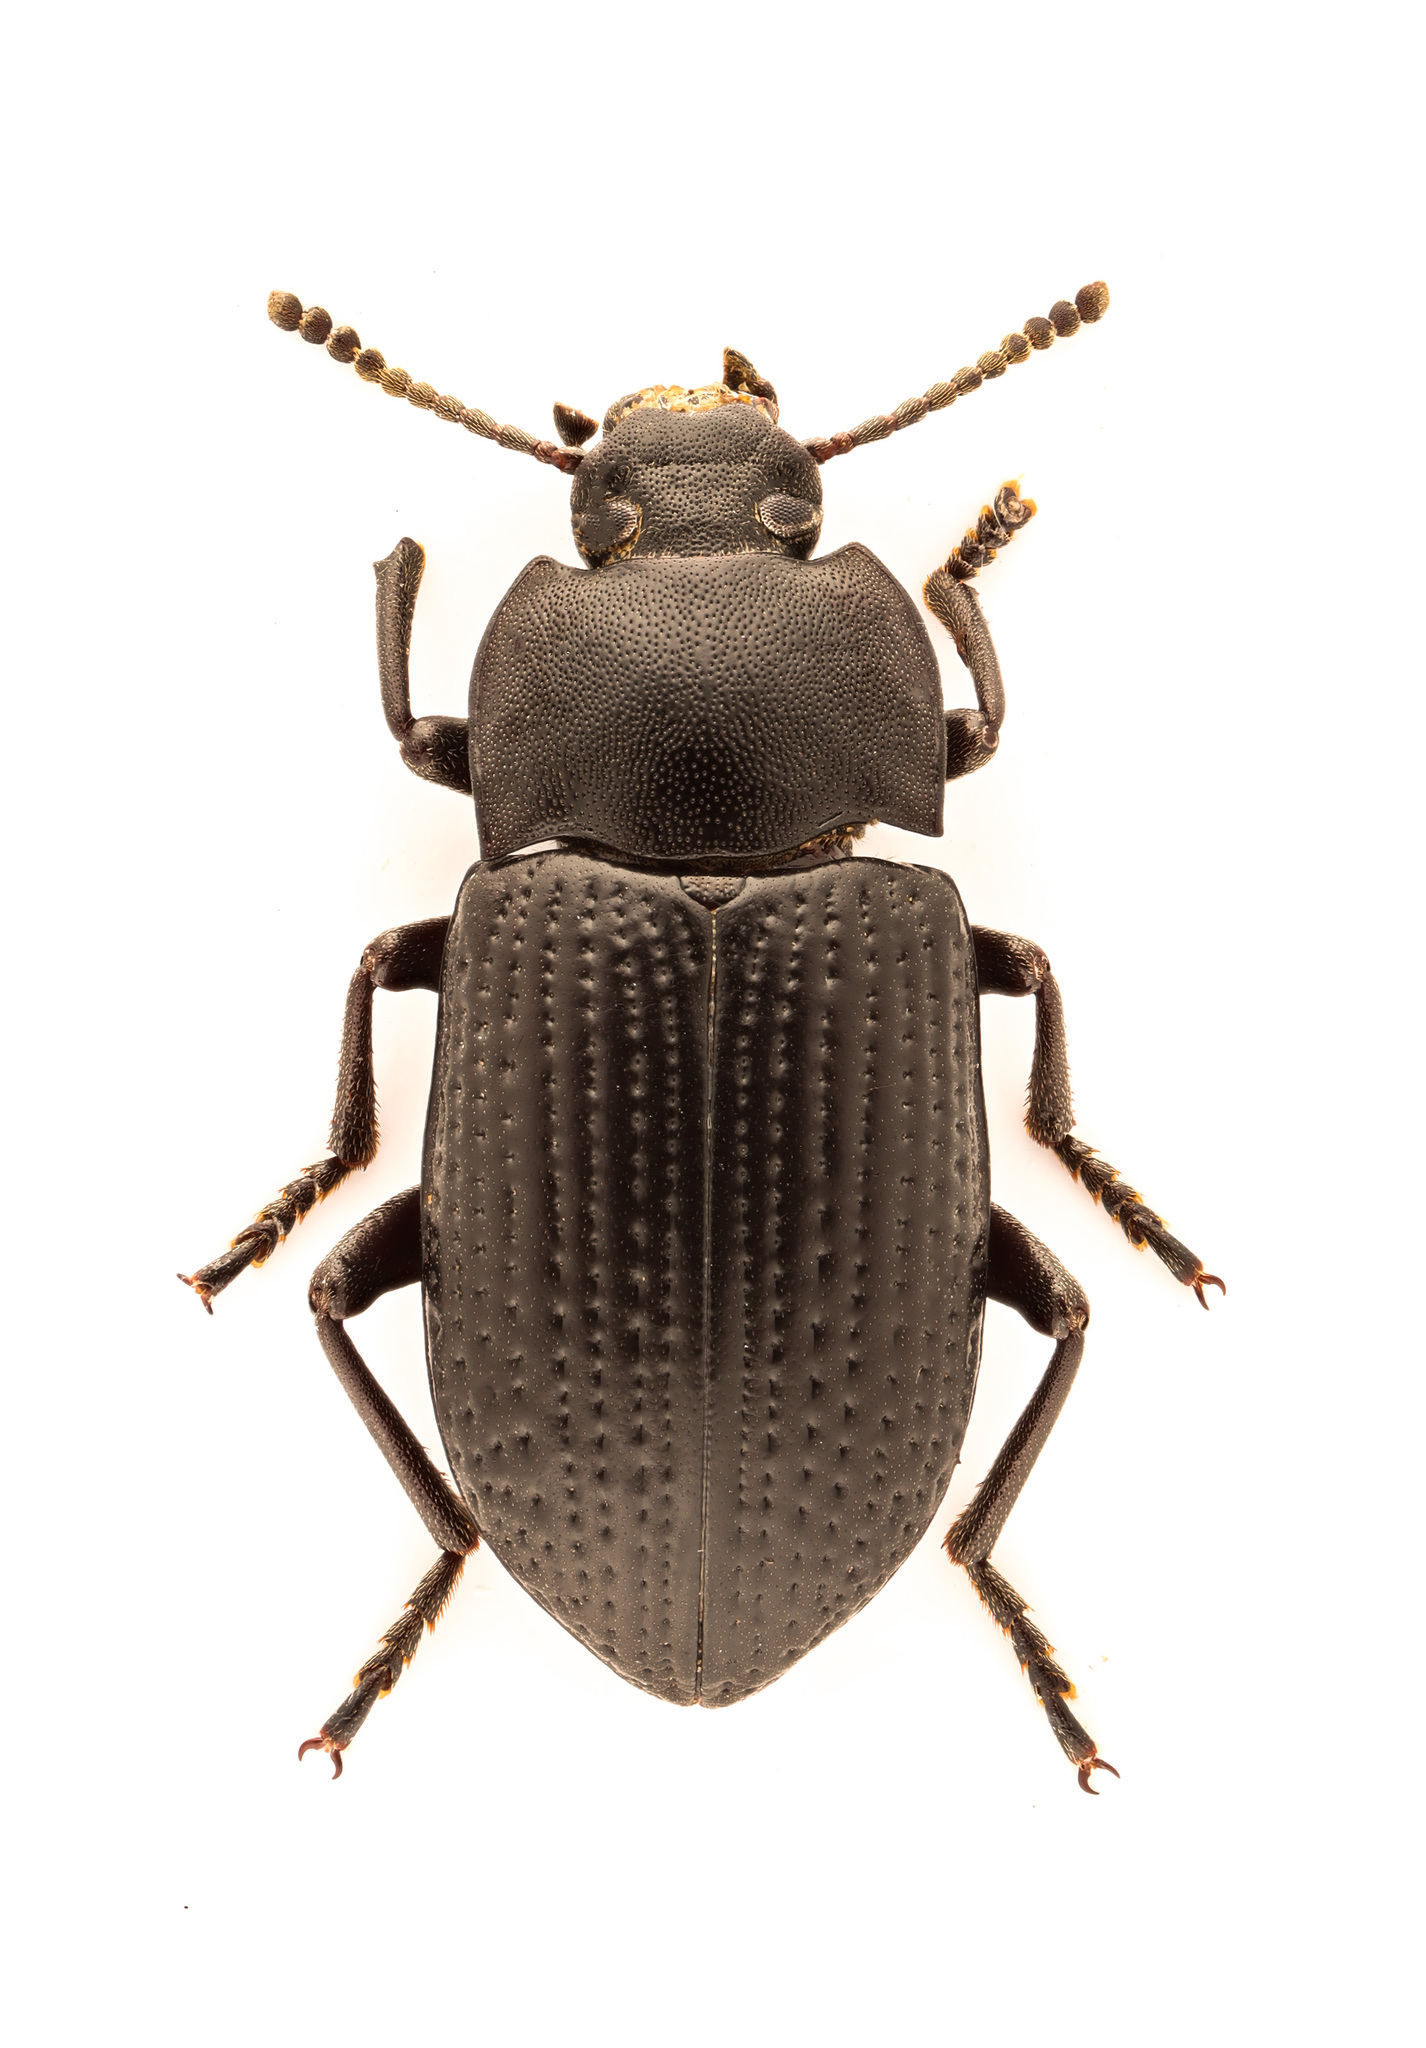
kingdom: Animalia
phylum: Arthropoda
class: Insecta
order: Coleoptera
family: Tenebrionidae
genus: Asiopus
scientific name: Asiopus
